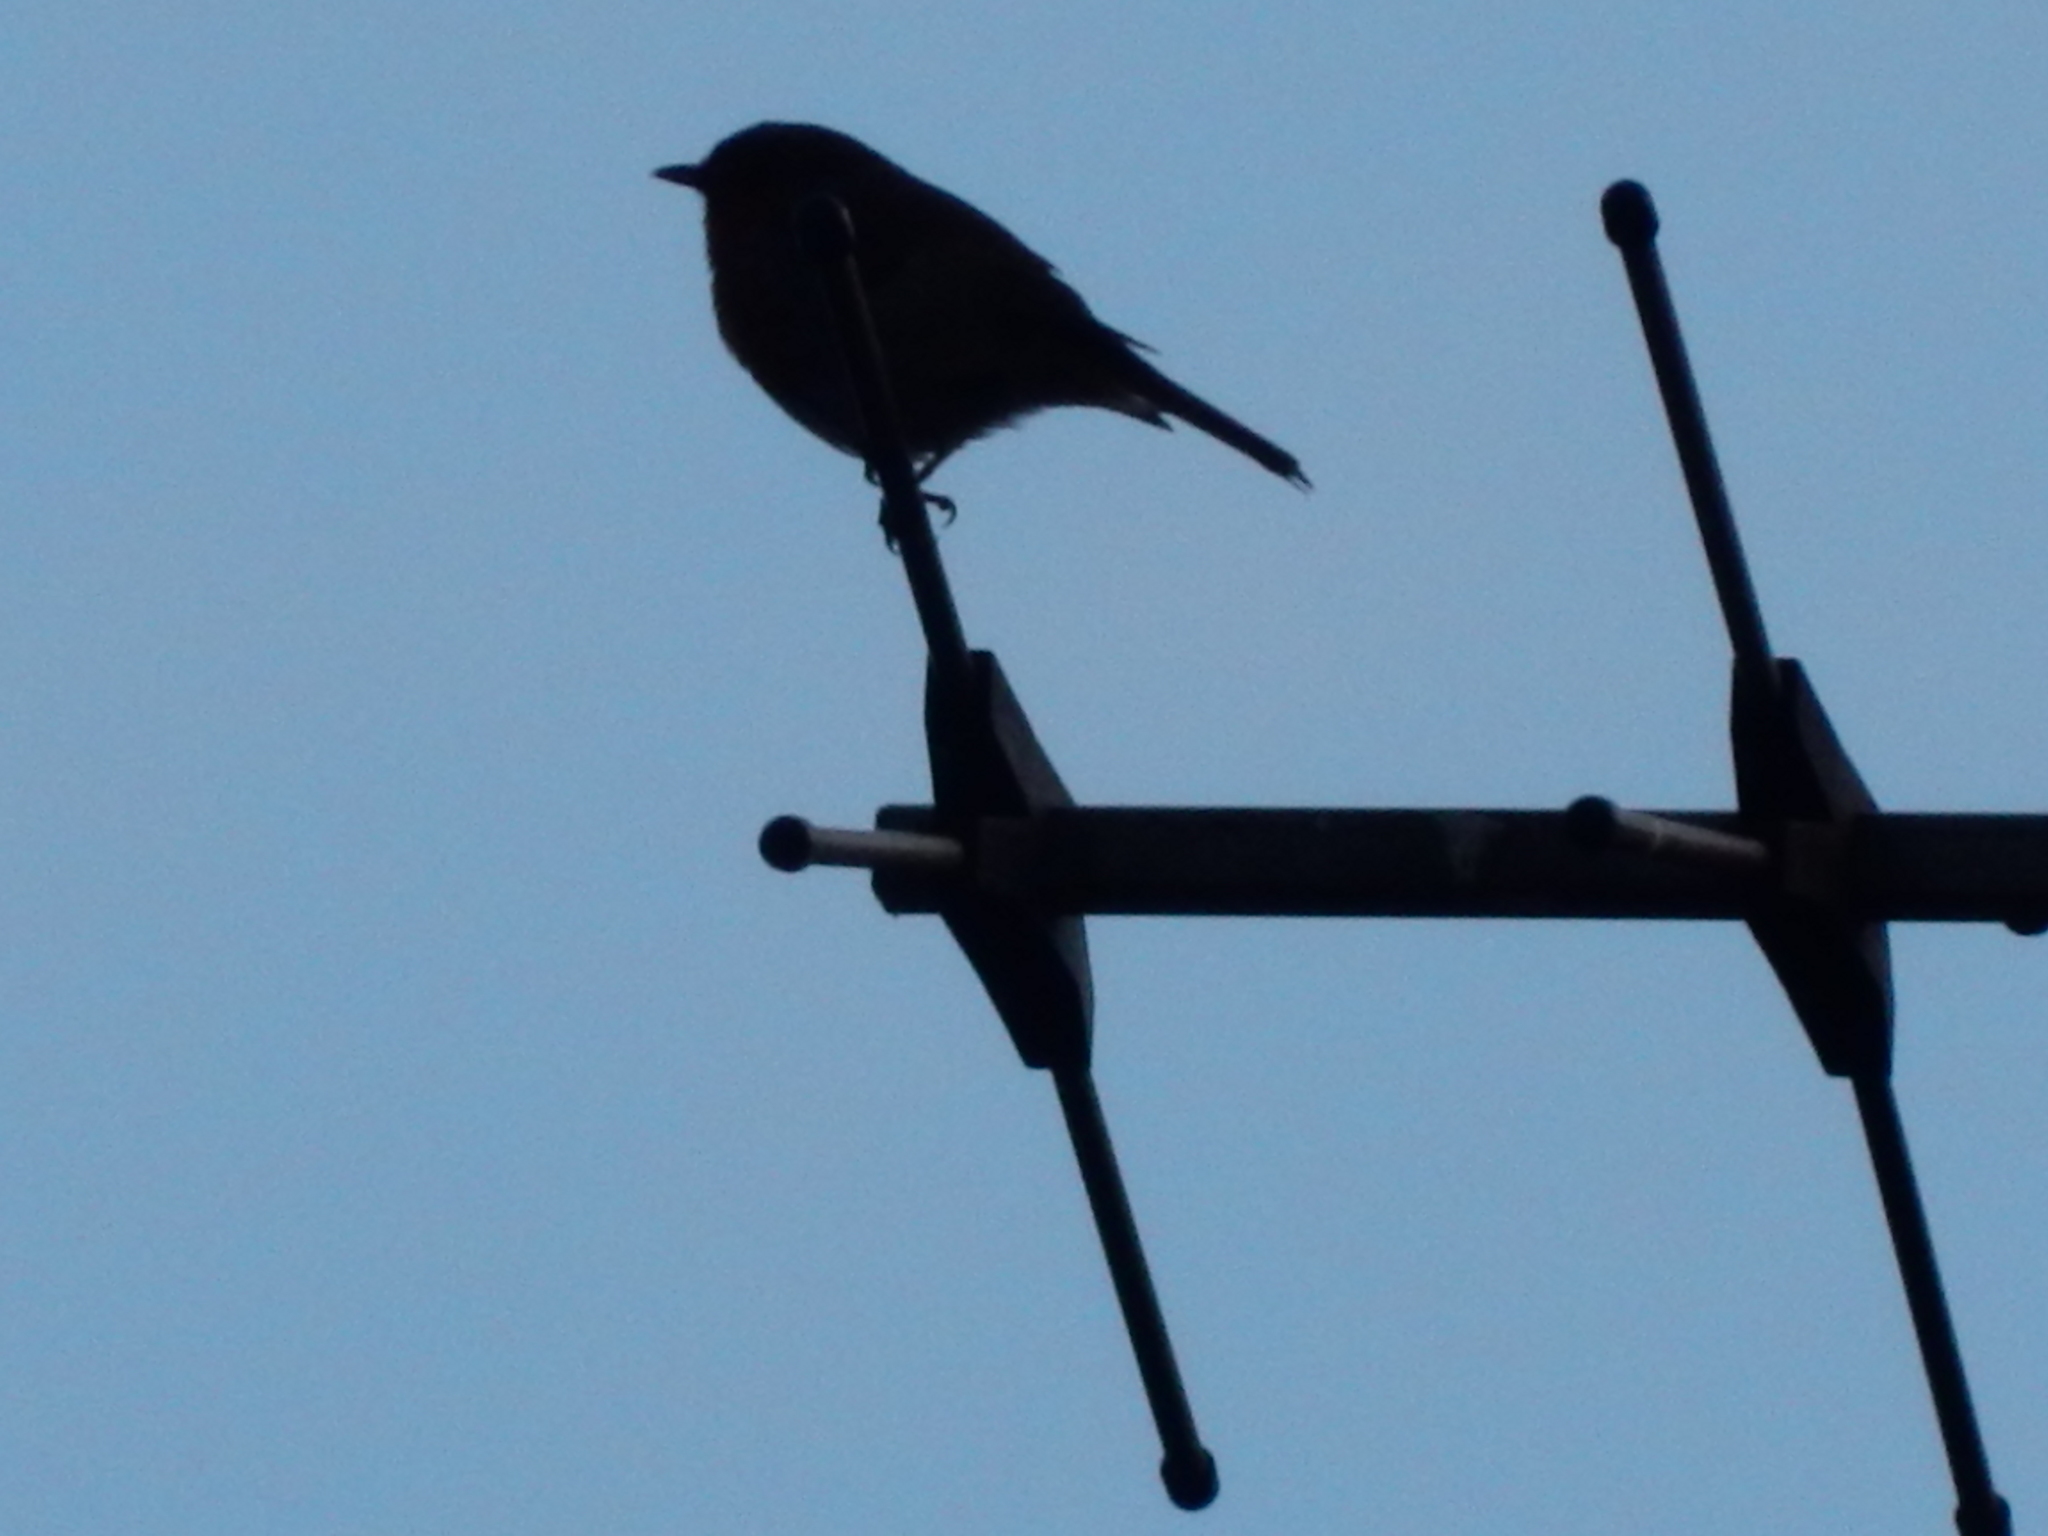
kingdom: Animalia
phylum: Chordata
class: Aves
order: Passeriformes
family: Muscicapidae
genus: Erithacus
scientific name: Erithacus rubecula
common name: European robin
